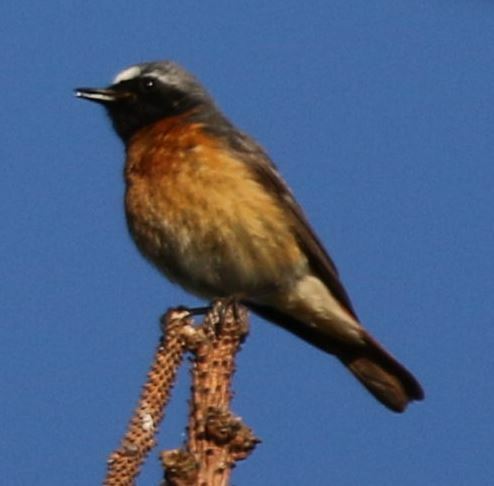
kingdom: Animalia
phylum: Chordata
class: Aves
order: Passeriformes
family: Muscicapidae
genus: Phoenicurus
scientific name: Phoenicurus phoenicurus
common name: Common redstart
